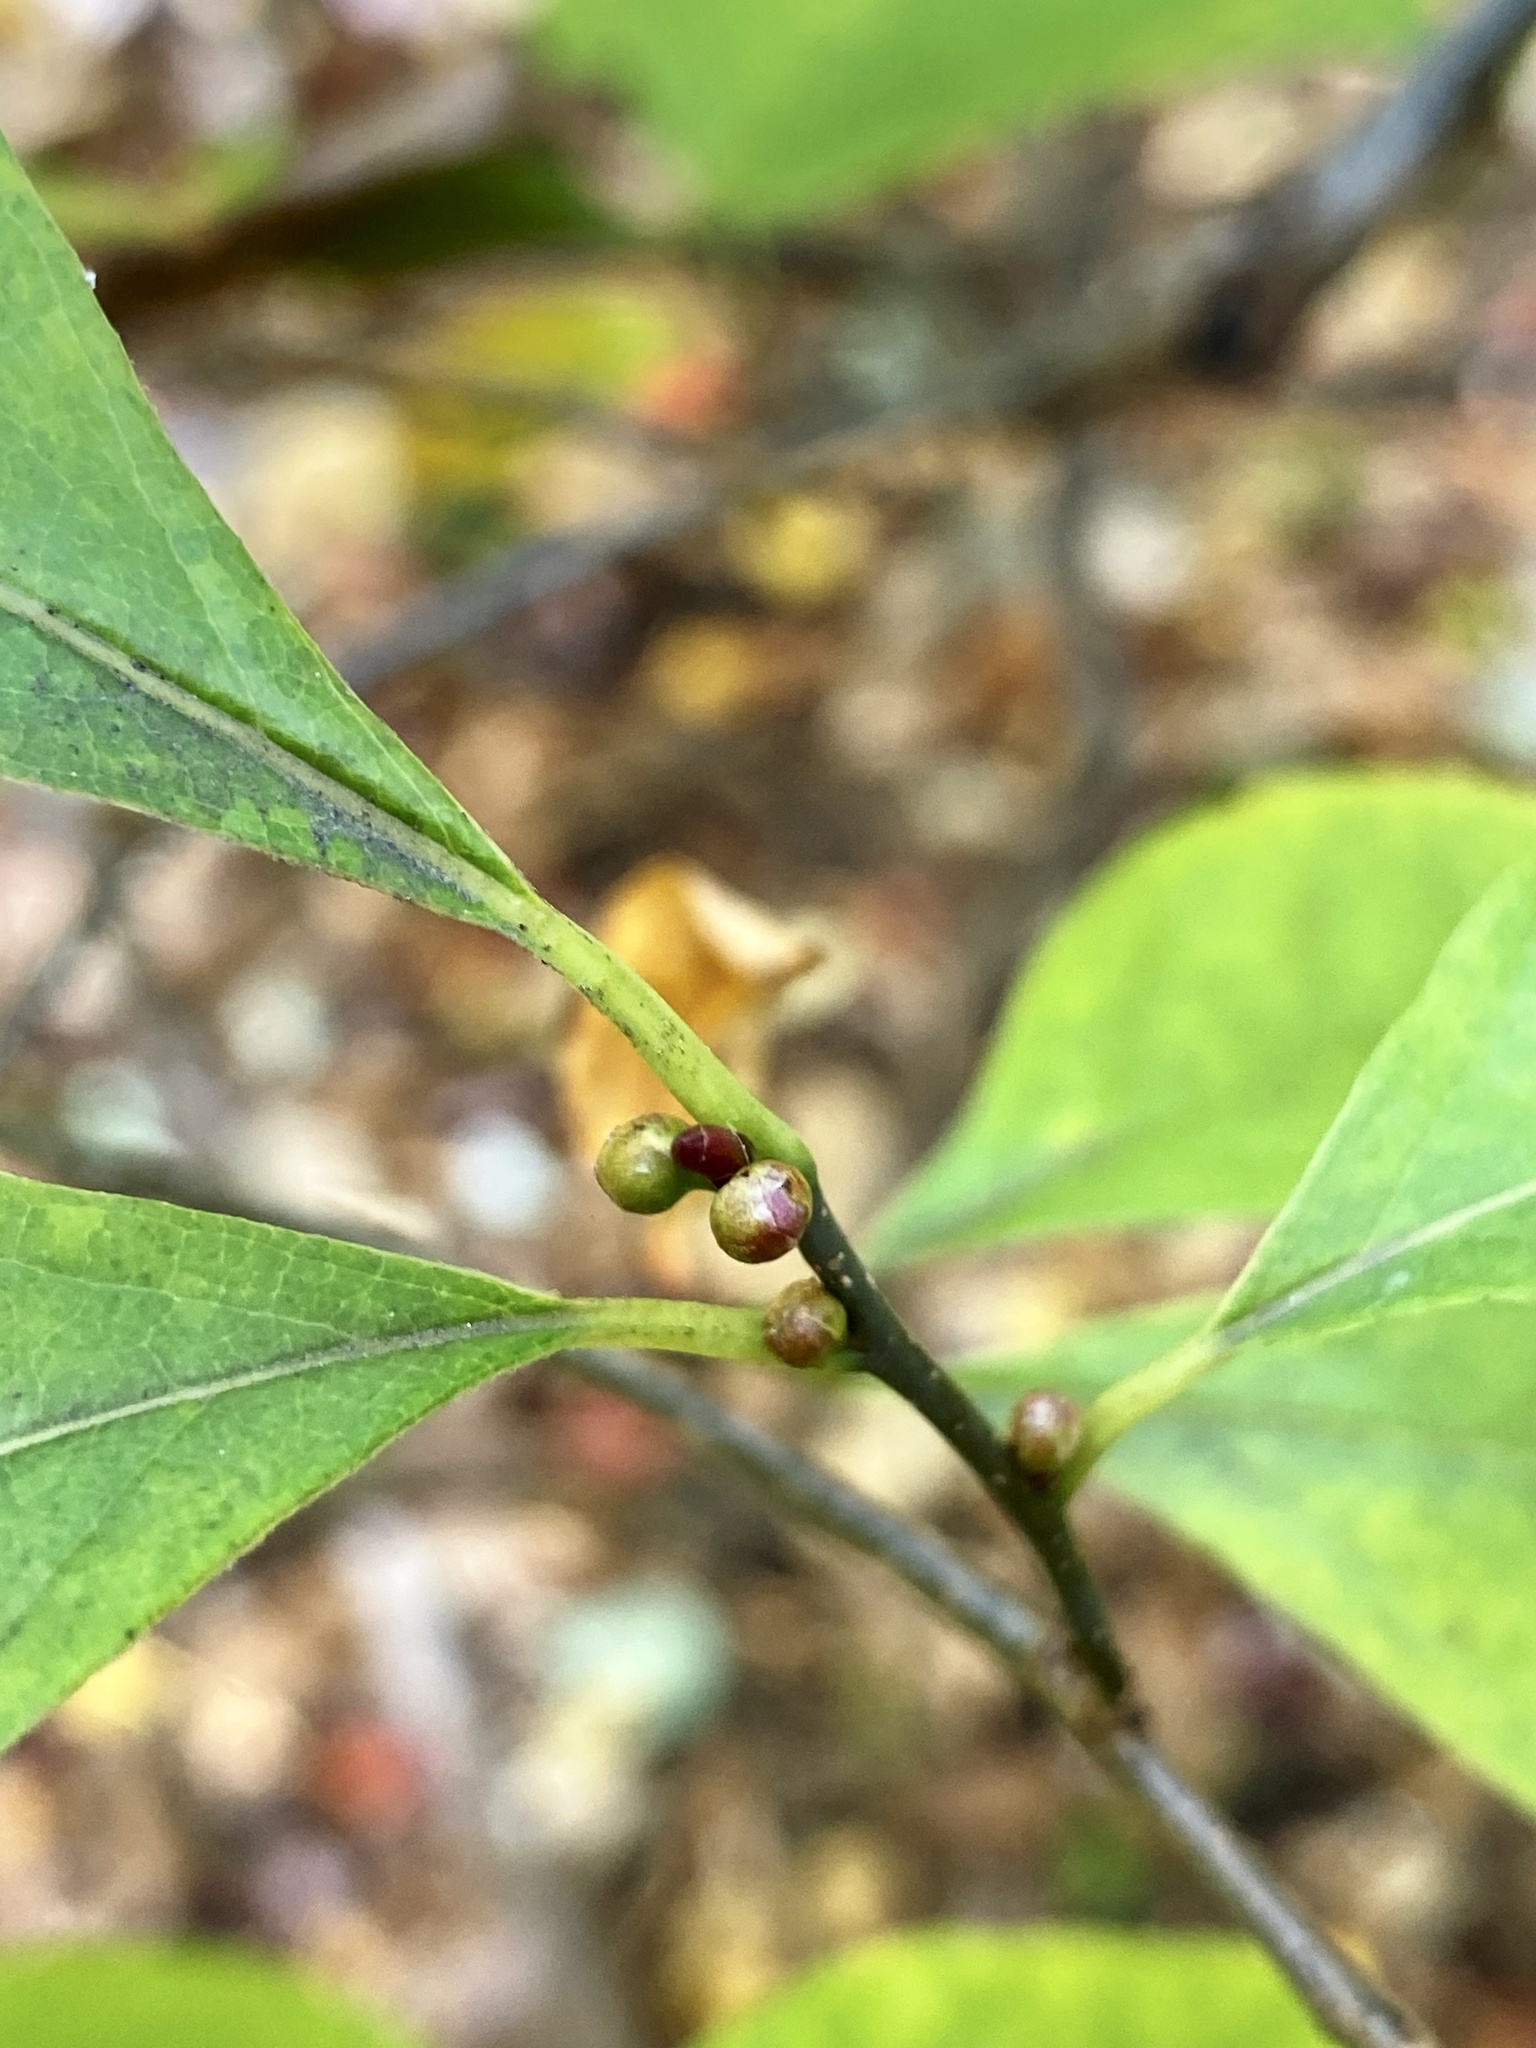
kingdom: Plantae
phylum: Tracheophyta
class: Magnoliopsida
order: Laurales
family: Lauraceae
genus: Lindera
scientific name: Lindera benzoin
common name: Spicebush
